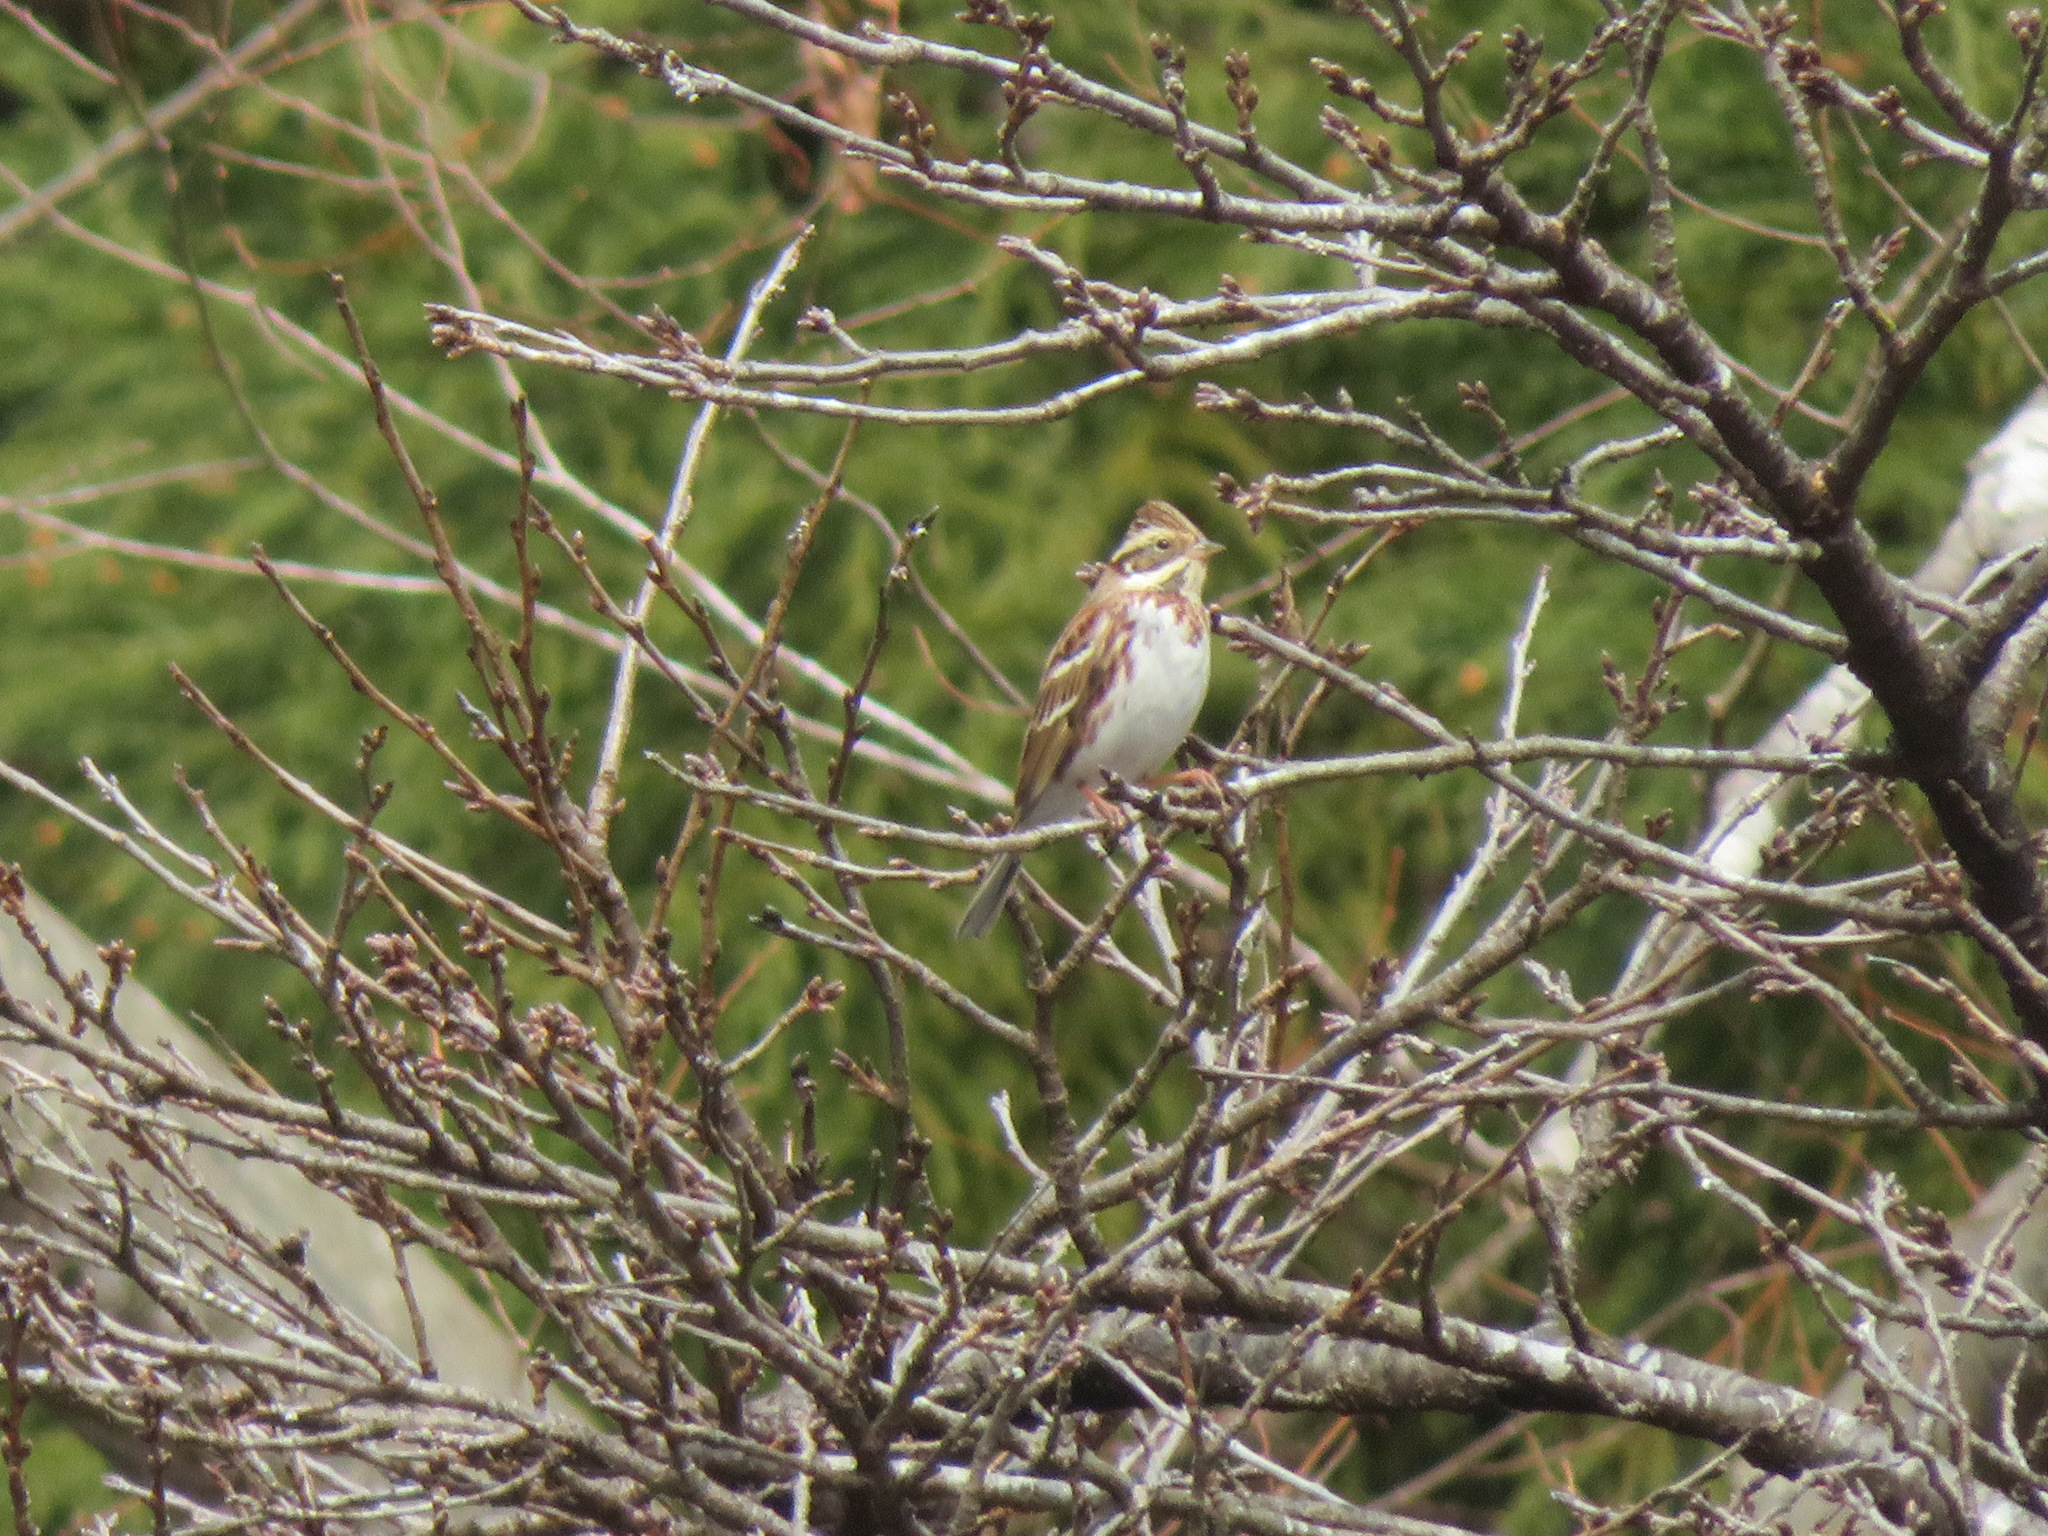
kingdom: Animalia
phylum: Chordata
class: Aves
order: Passeriformes
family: Emberizidae
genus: Emberiza
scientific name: Emberiza rustica
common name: Rustic bunting
